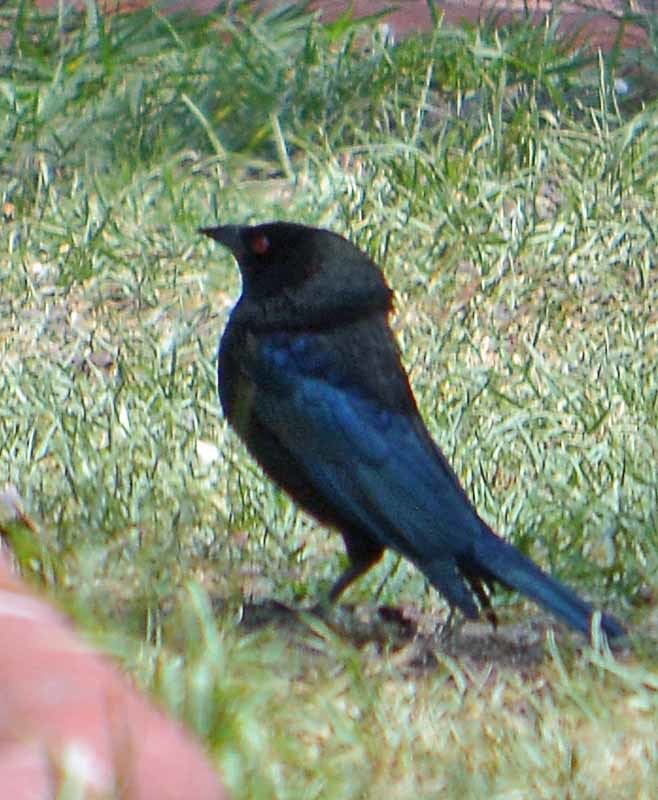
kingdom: Animalia
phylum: Chordata
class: Aves
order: Passeriformes
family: Icteridae
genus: Molothrus
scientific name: Molothrus aeneus
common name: Bronzed cowbird
